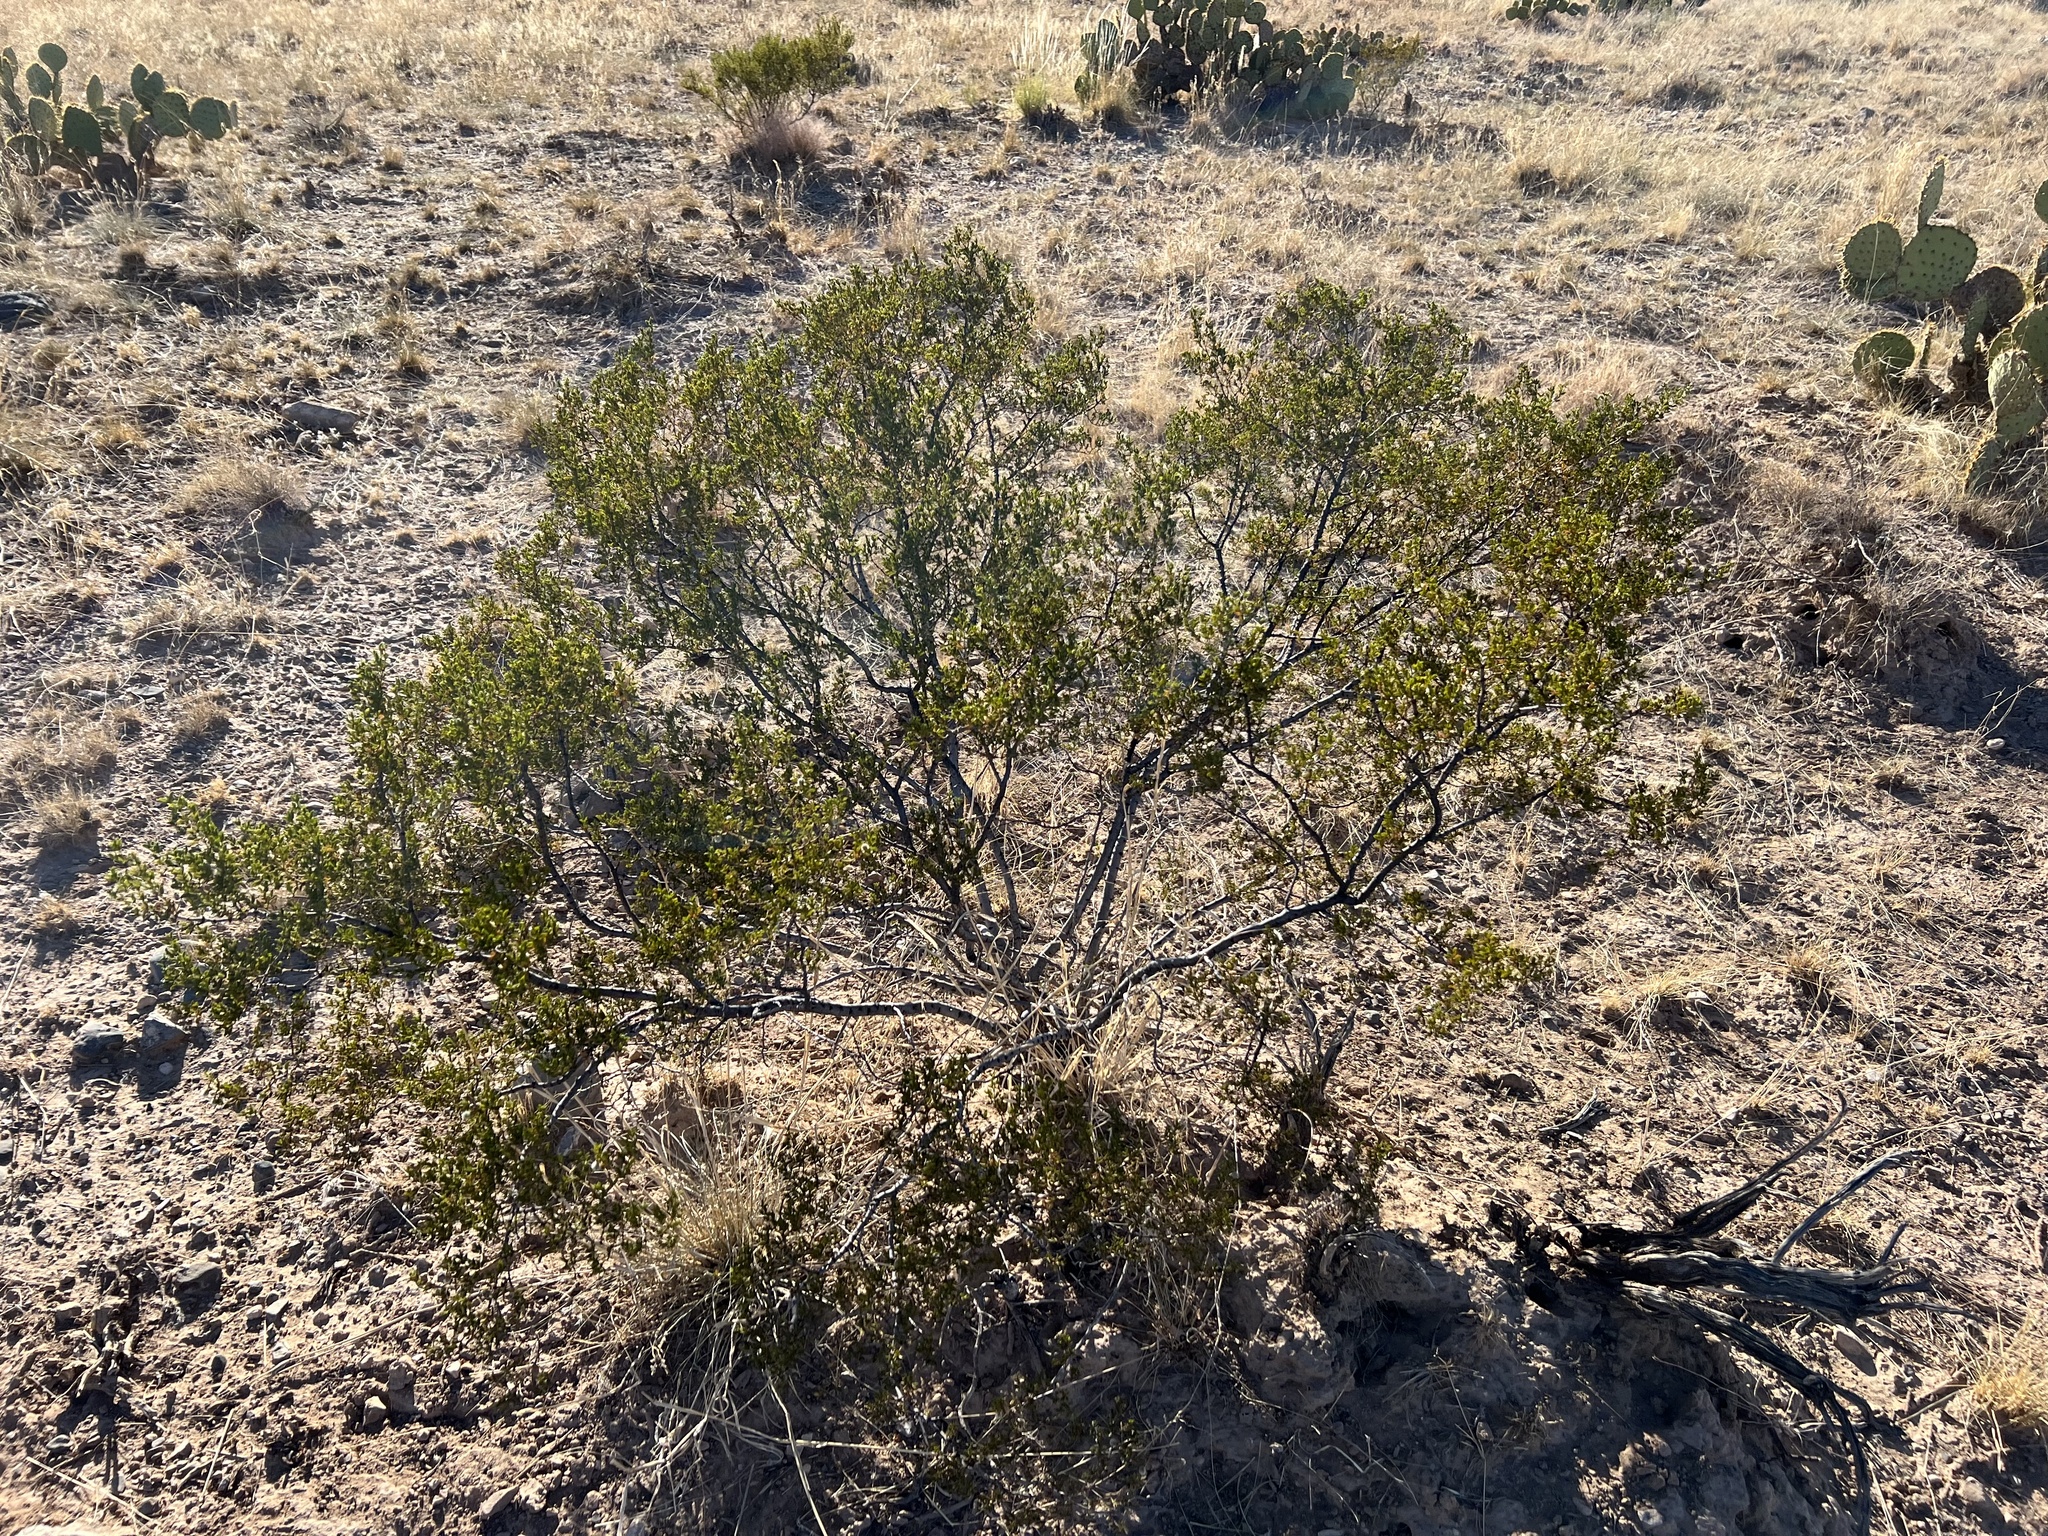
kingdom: Plantae
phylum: Tracheophyta
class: Magnoliopsida
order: Zygophyllales
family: Zygophyllaceae
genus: Larrea
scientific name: Larrea tridentata
